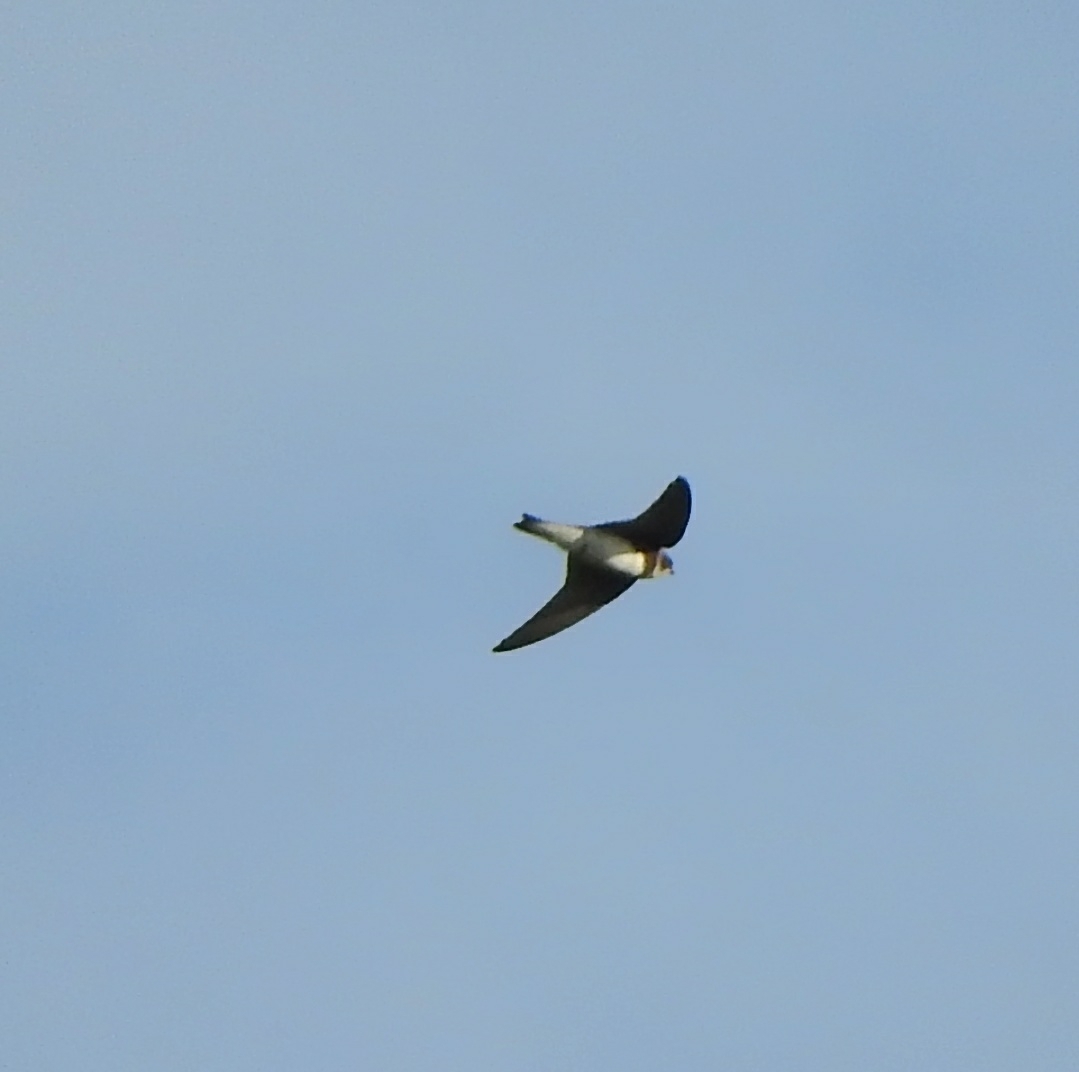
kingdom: Animalia
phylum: Chordata
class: Aves
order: Passeriformes
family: Hirundinidae
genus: Riparia
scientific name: Riparia riparia
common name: Sand martin
